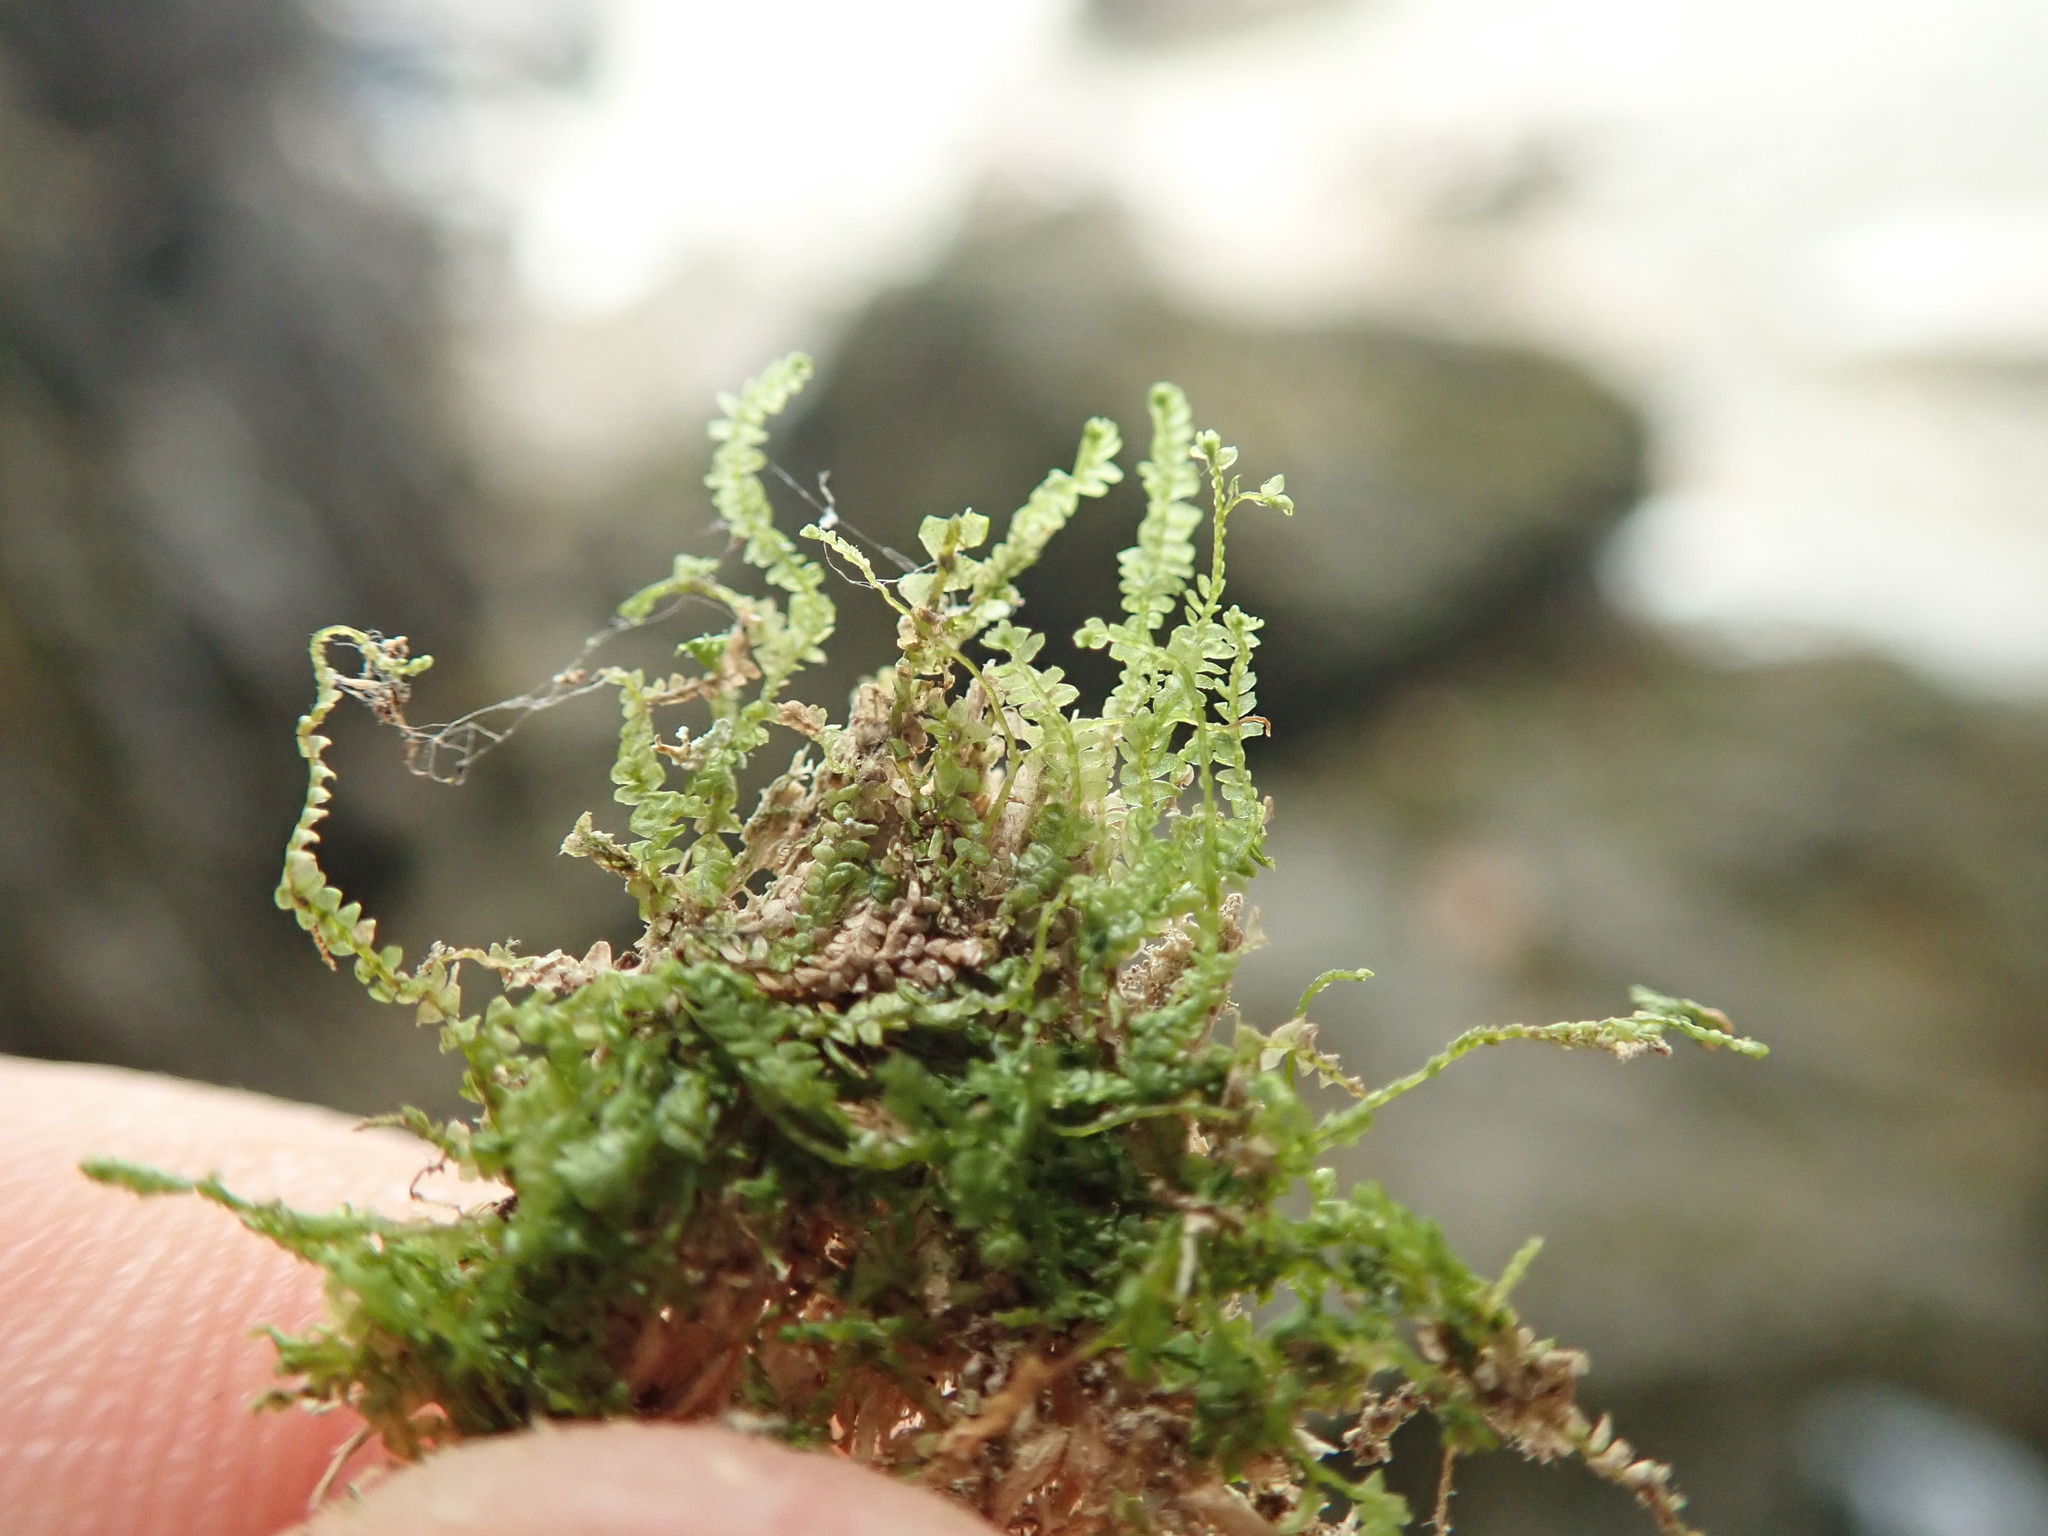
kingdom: Plantae
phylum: Marchantiophyta
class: Jungermanniopsida
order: Jungermanniales
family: Lepidoziaceae
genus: Bazzania
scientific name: Bazzania denudata
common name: Naked whipwort
